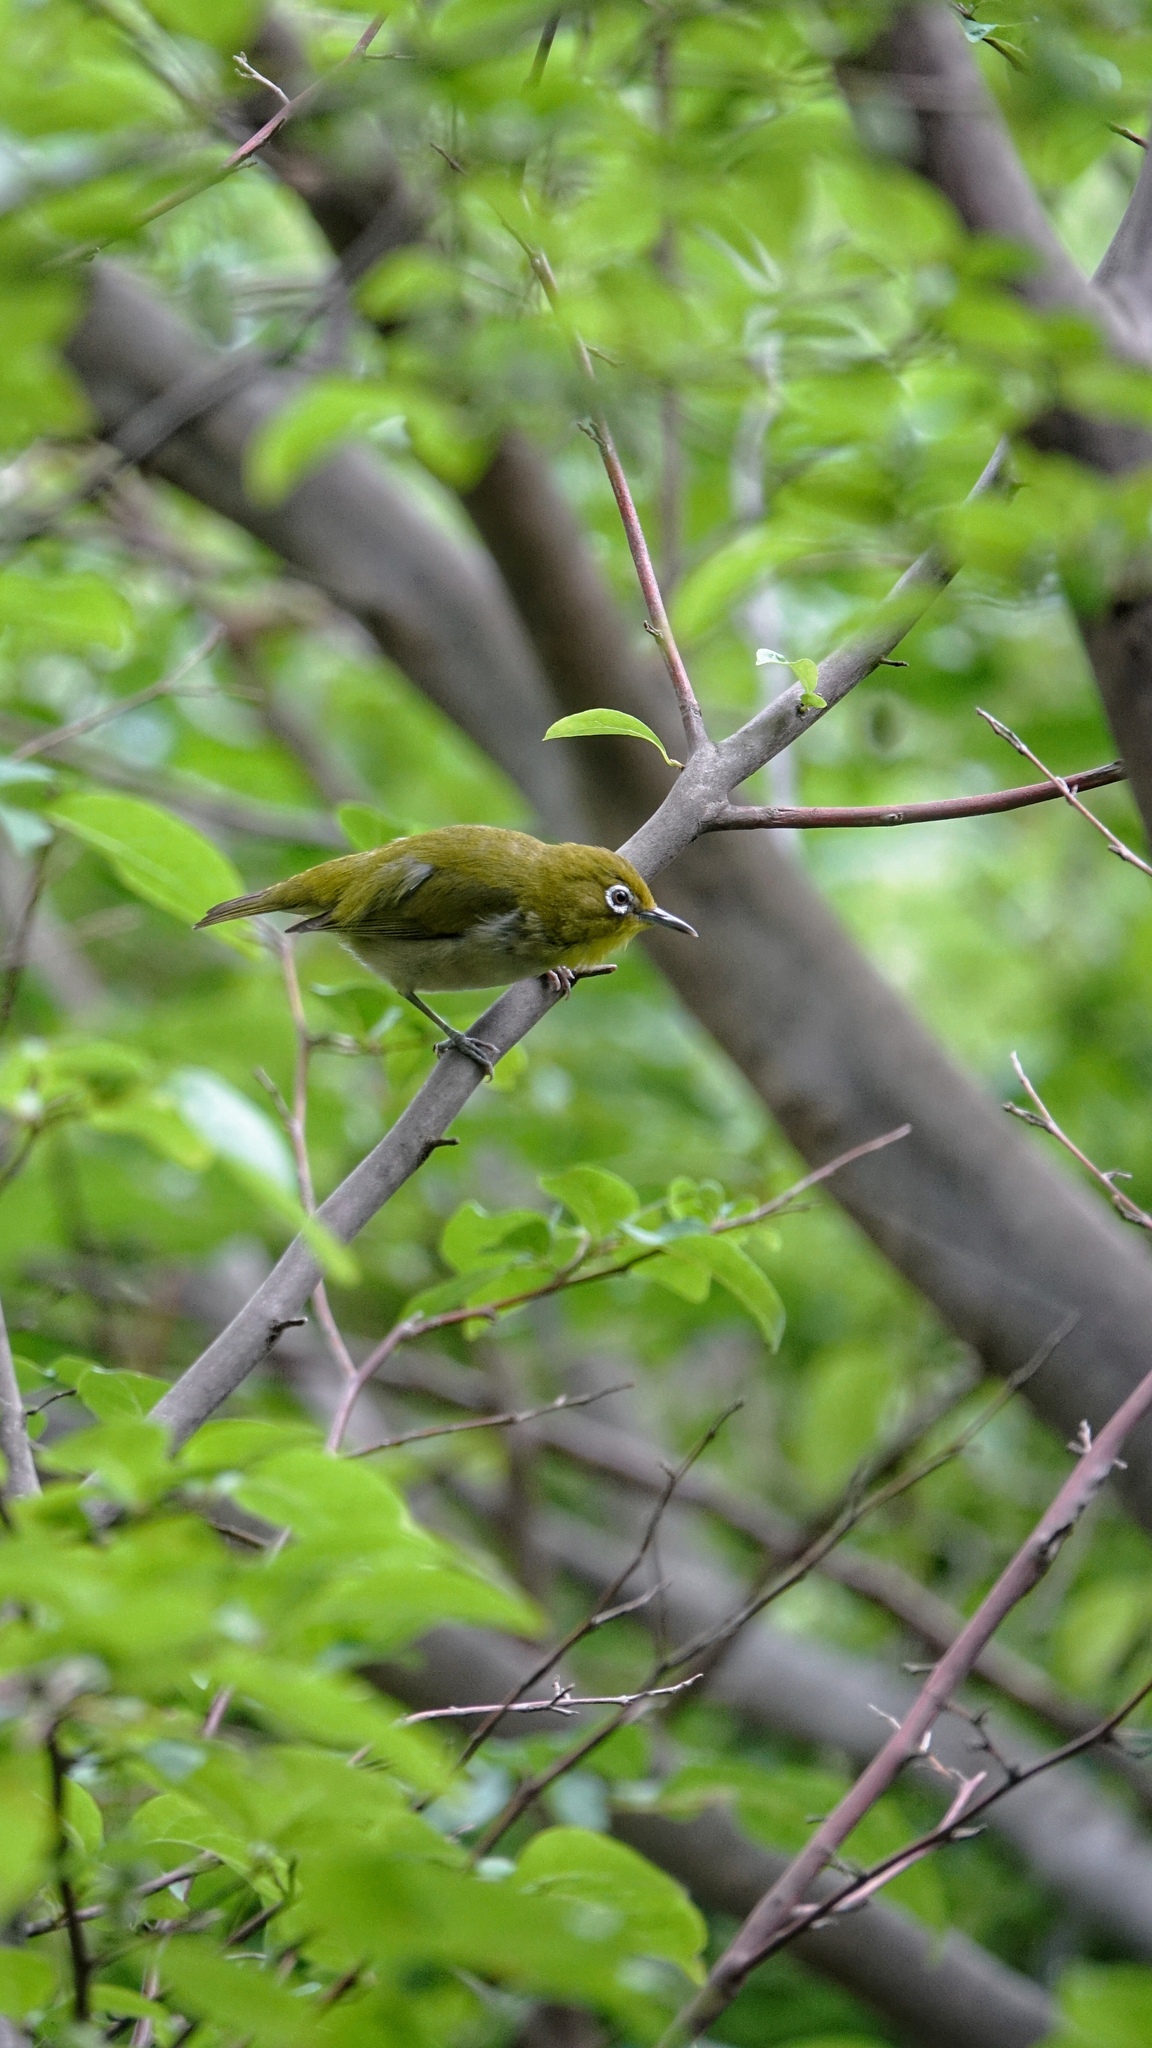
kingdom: Animalia
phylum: Chordata
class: Aves
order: Passeriformes
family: Zosteropidae
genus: Zosterops
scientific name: Zosterops japonicus
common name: Japanese white-eye
